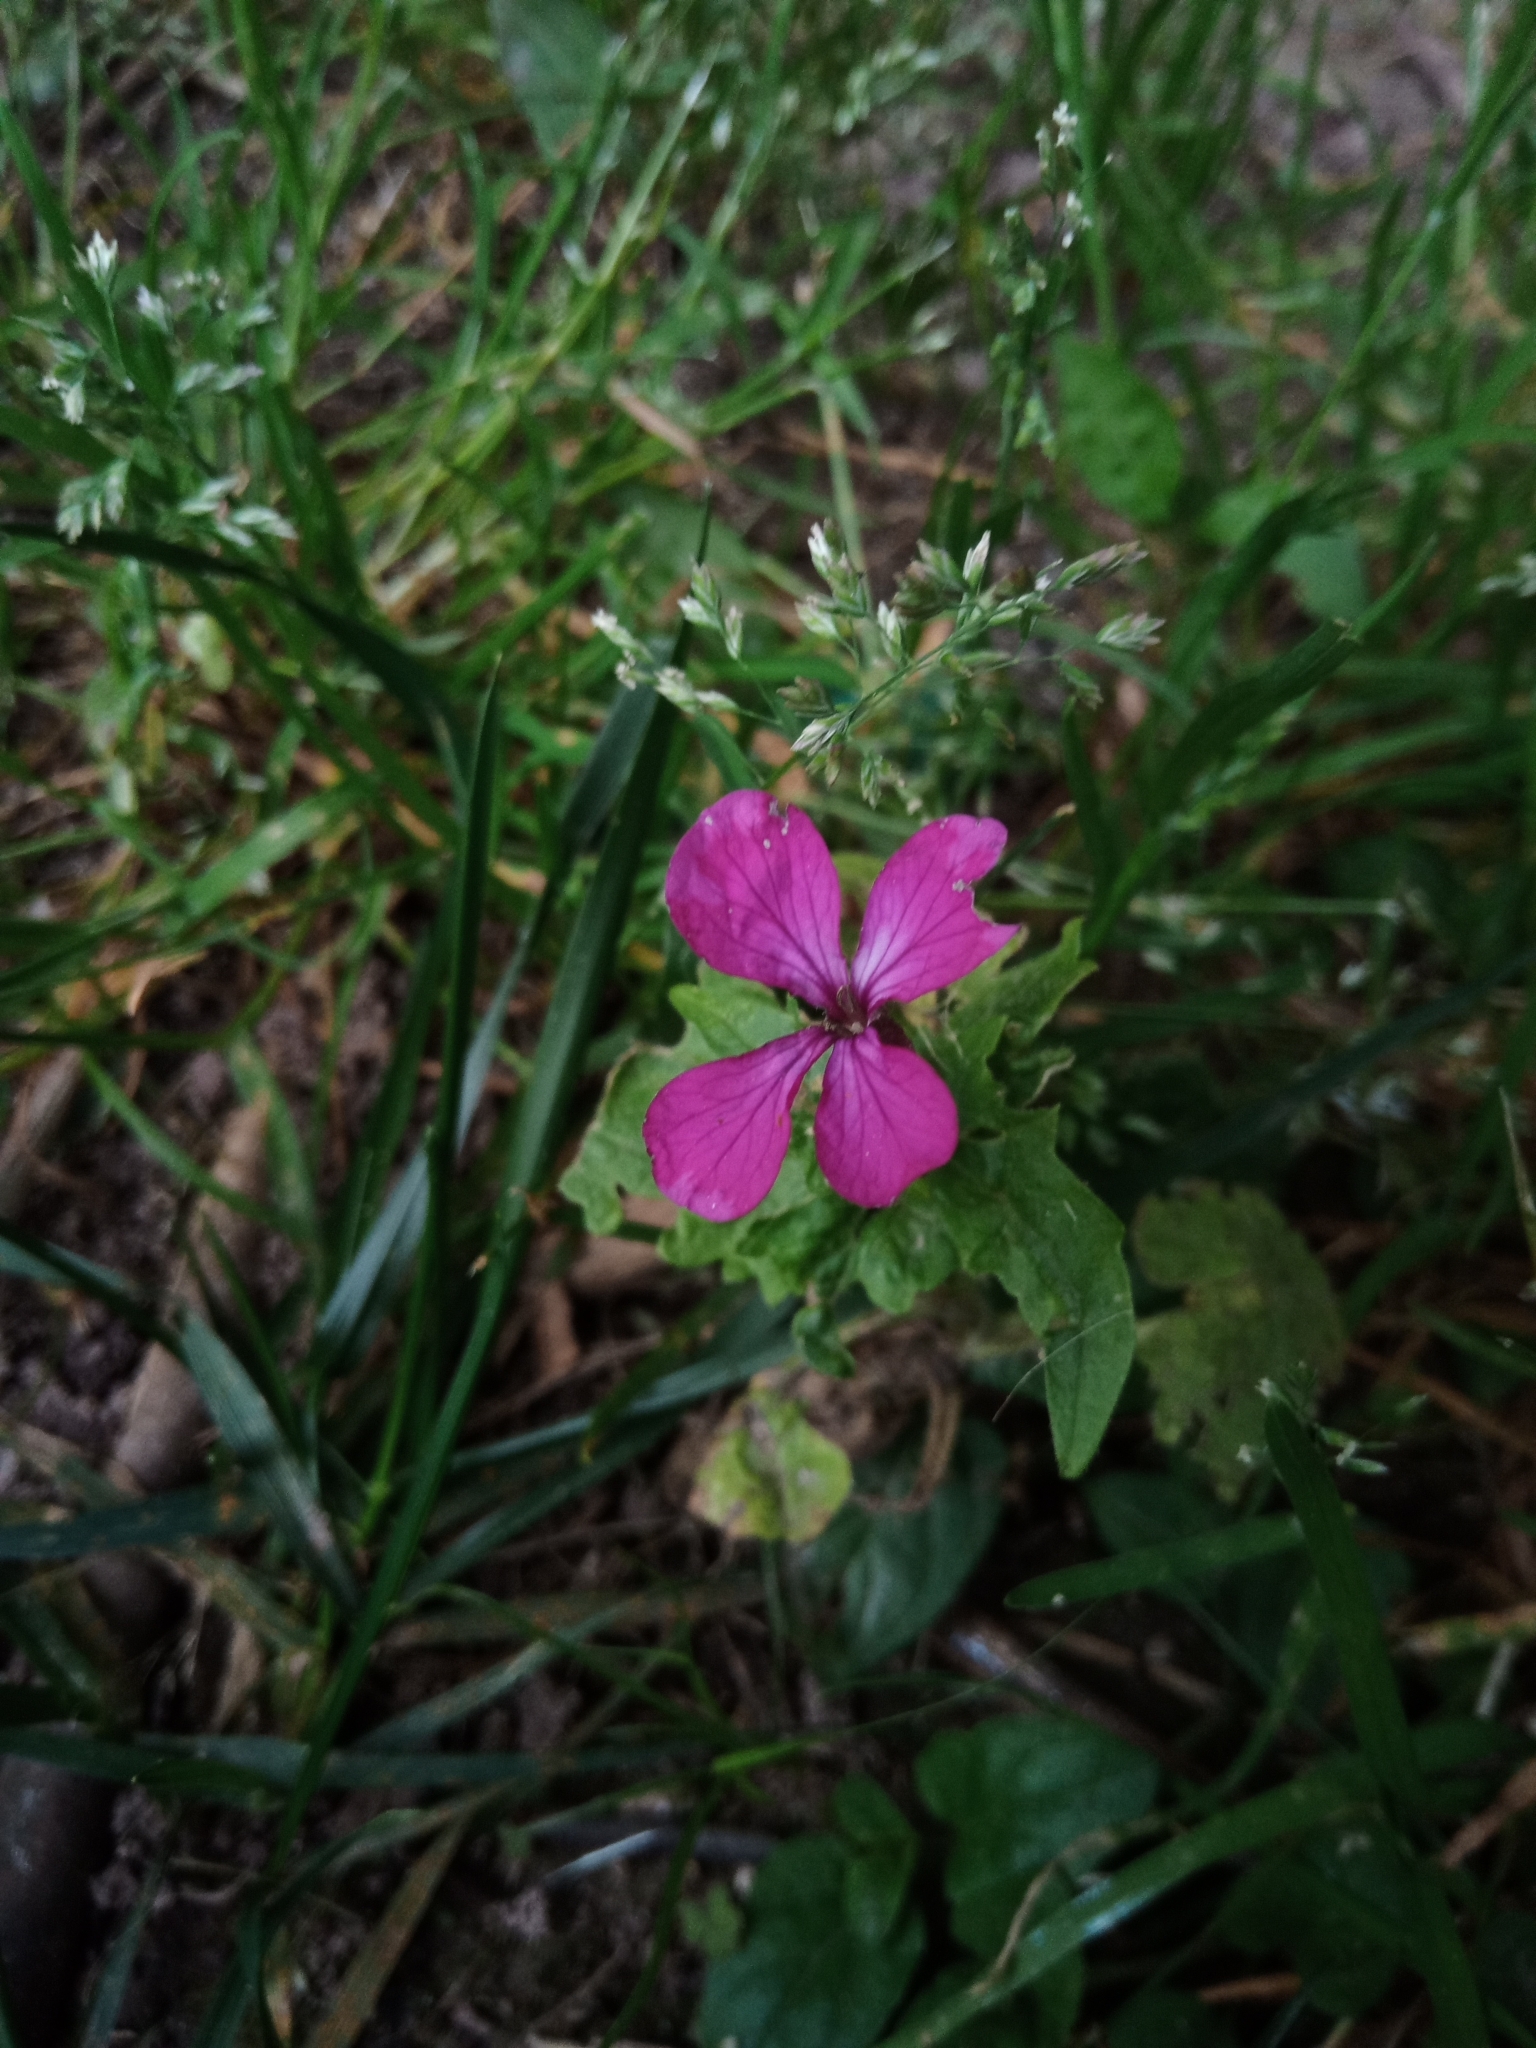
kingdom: Plantae
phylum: Tracheophyta
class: Magnoliopsida
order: Brassicales
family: Brassicaceae
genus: Lunaria
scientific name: Lunaria annua
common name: Honesty
